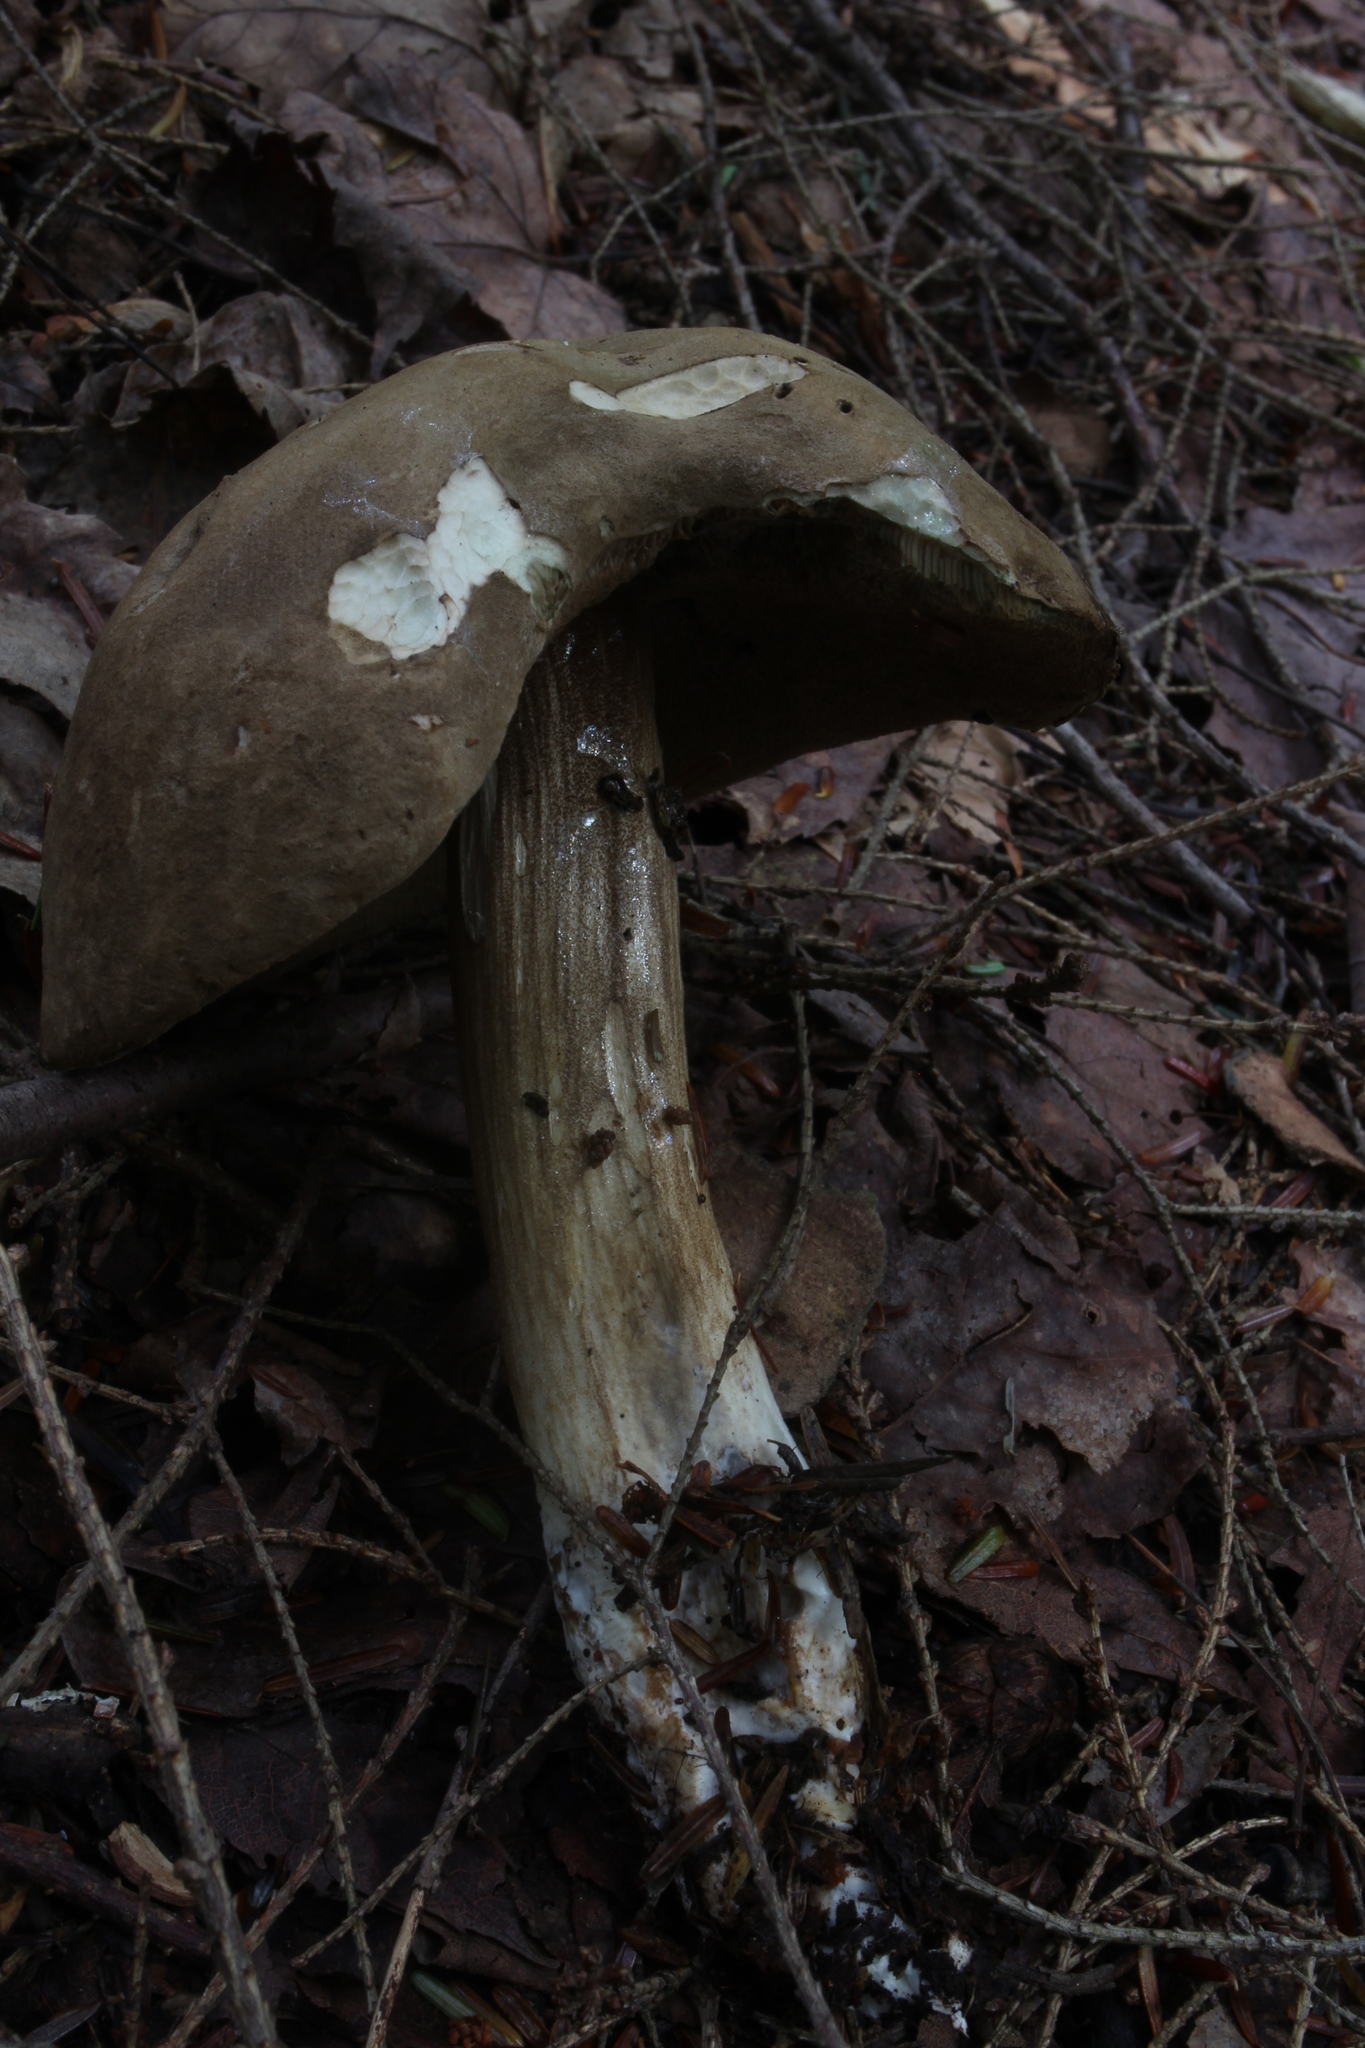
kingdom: Fungi
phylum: Basidiomycota
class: Agaricomycetes
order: Boletales
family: Boletaceae
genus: Porphyrellus
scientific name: Porphyrellus porphyrosporus
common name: Dusky bolete
